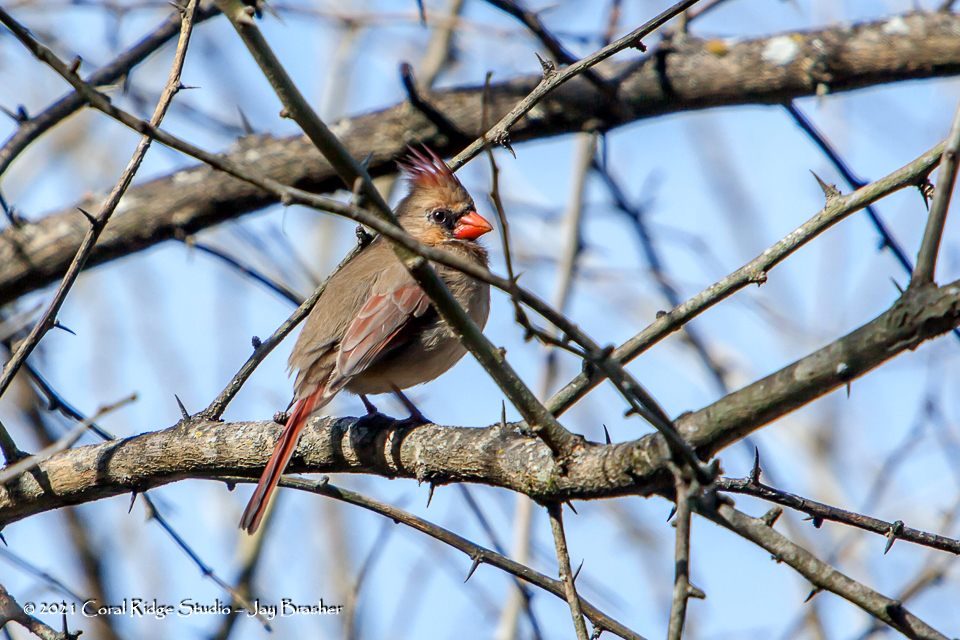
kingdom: Animalia
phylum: Chordata
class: Aves
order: Passeriformes
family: Cardinalidae
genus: Cardinalis
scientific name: Cardinalis cardinalis
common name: Northern cardinal
